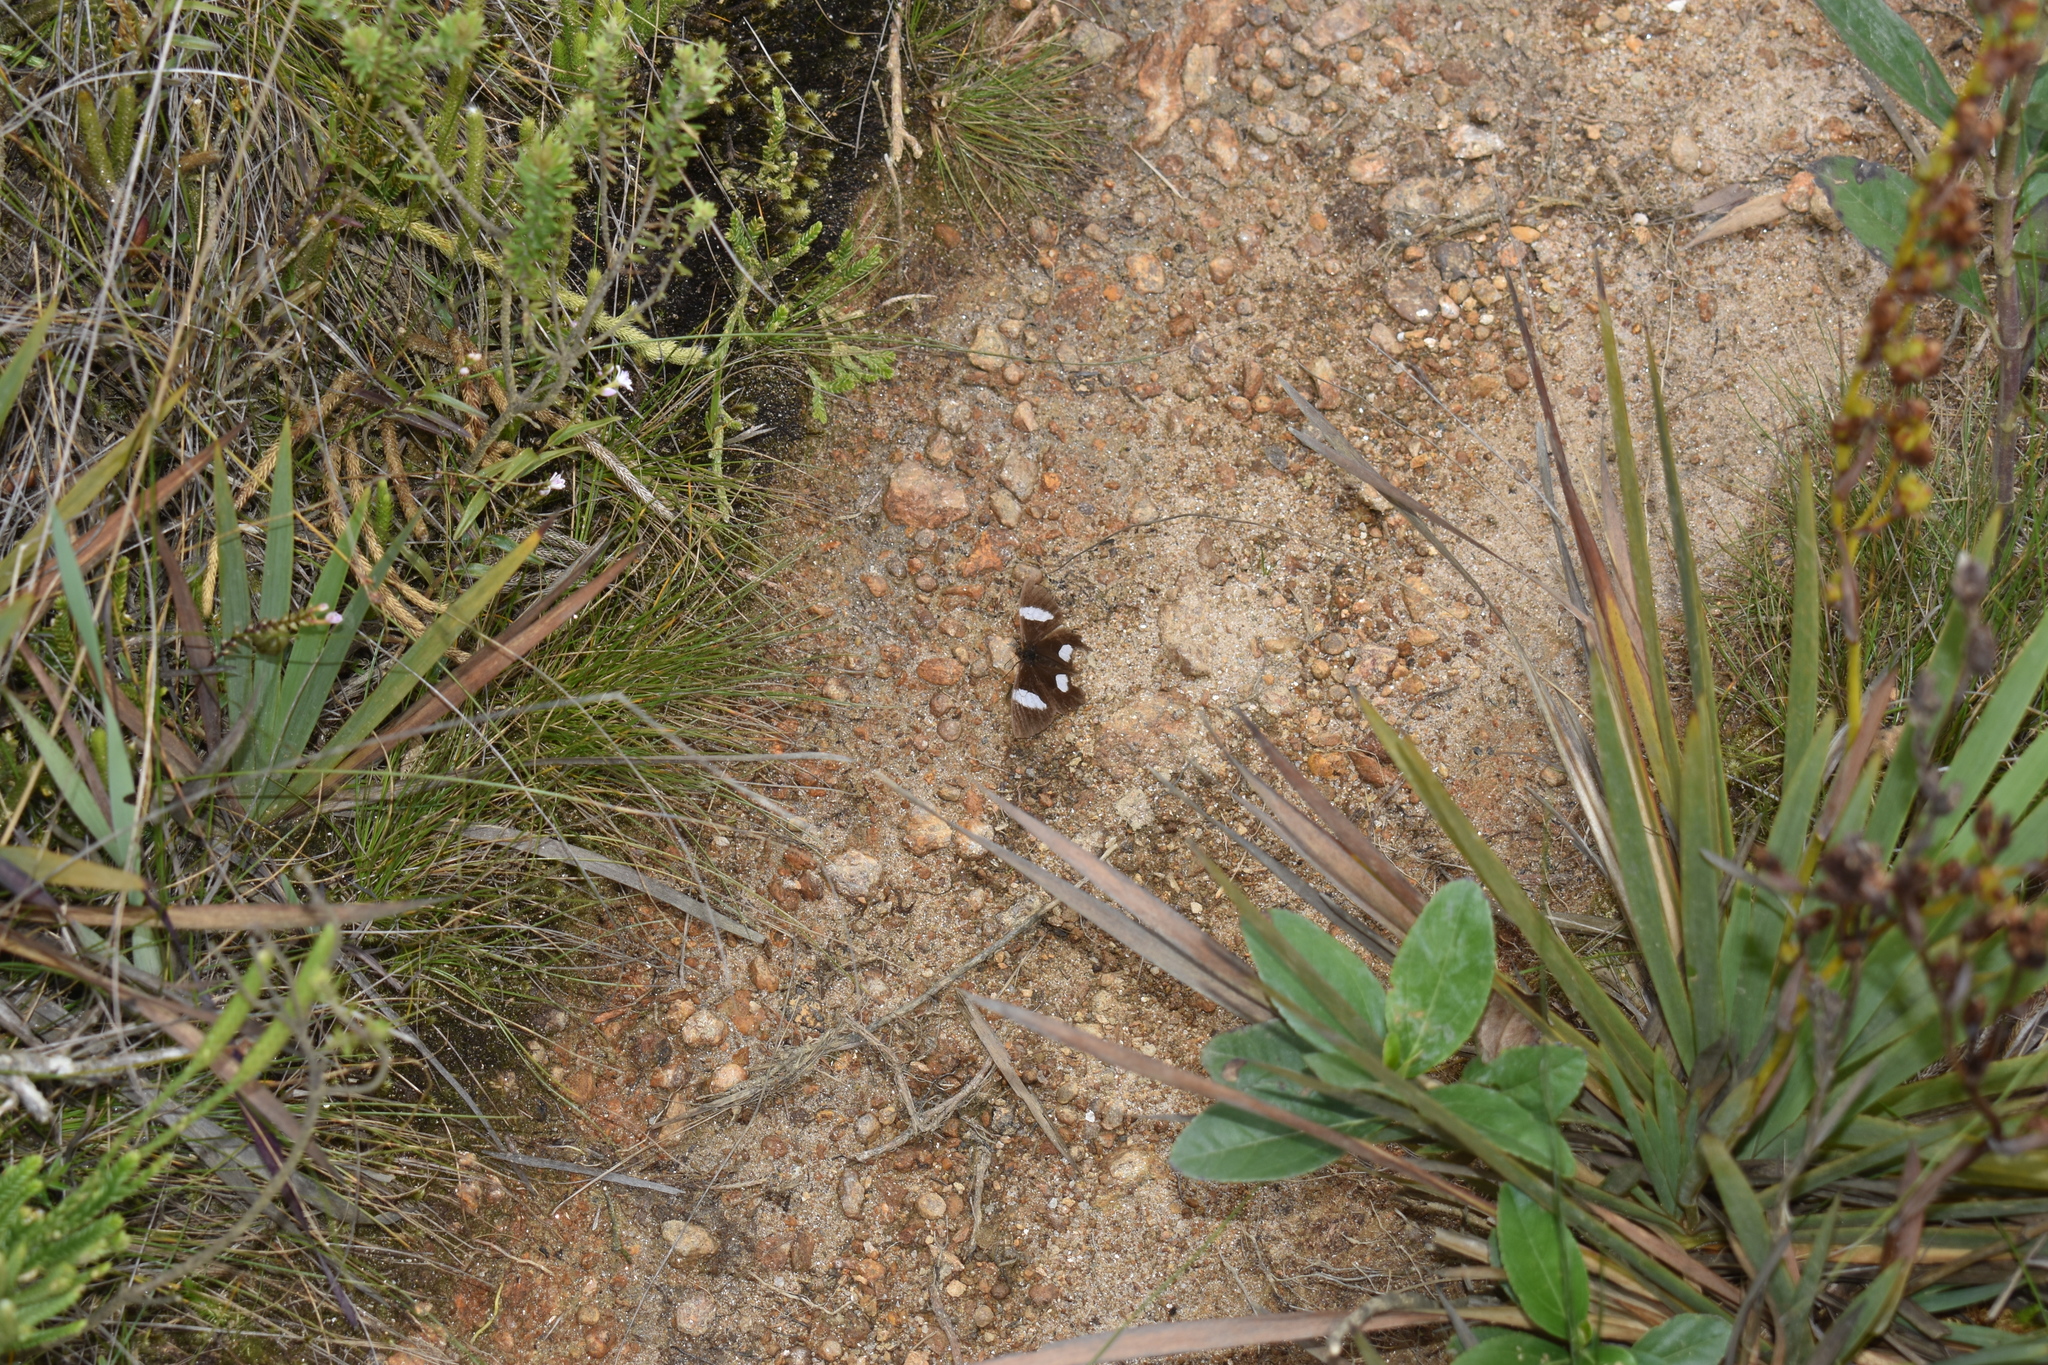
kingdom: Animalia
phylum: Arthropoda
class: Insecta
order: Lepidoptera
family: Nymphalidae
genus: Pedaliodes
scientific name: Pedaliodes phaedra
